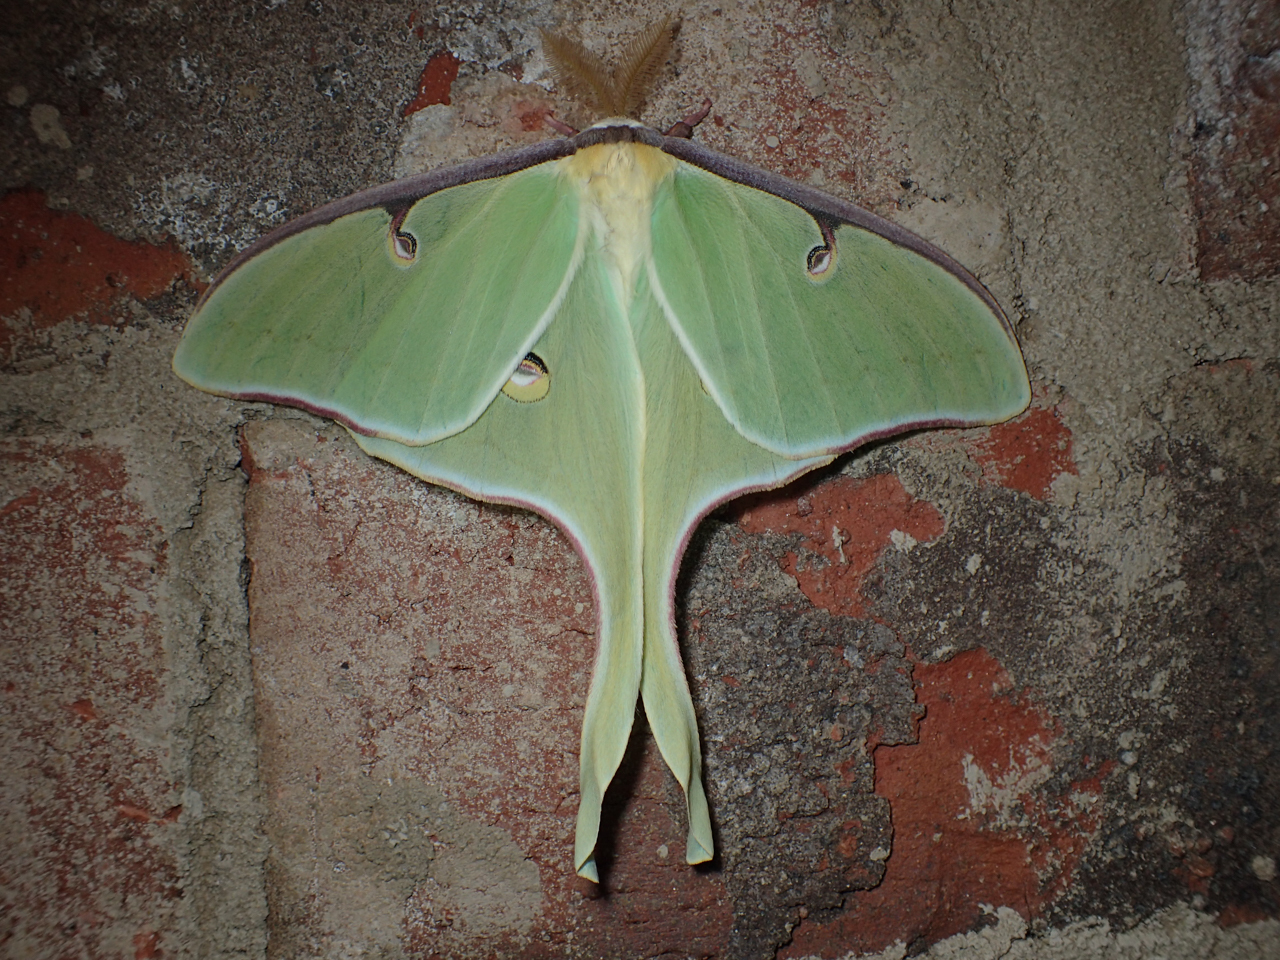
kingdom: Animalia
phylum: Arthropoda
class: Insecta
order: Lepidoptera
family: Saturniidae
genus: Actias
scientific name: Actias luna
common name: Luna moth
